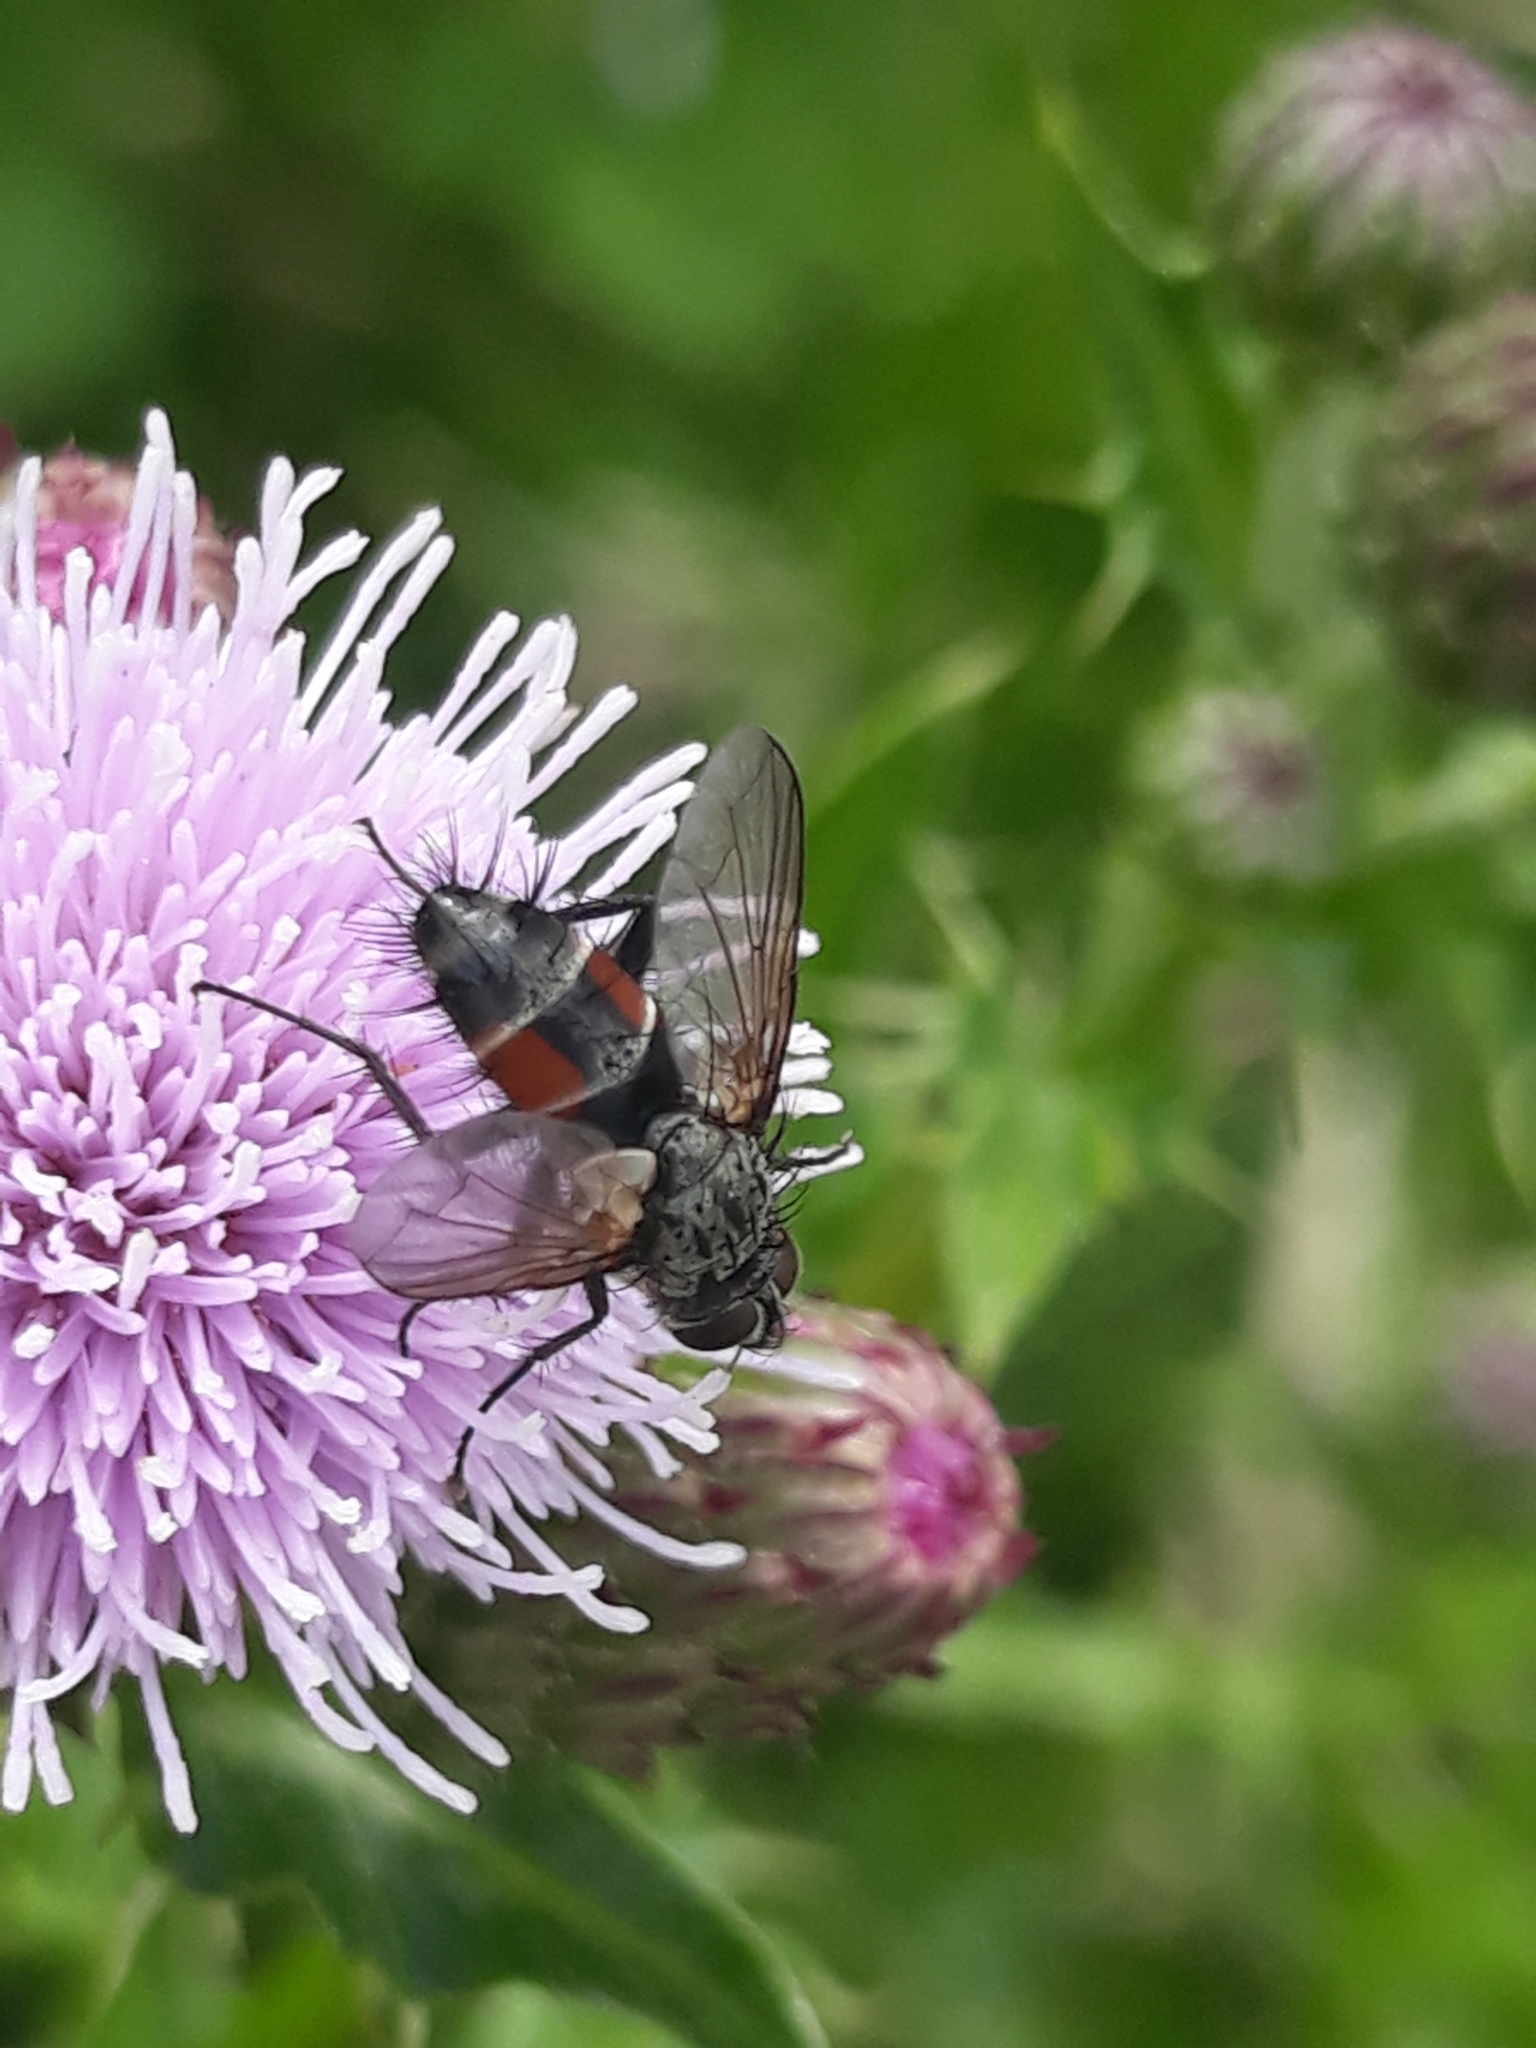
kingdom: Animalia
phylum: Arthropoda
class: Insecta
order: Diptera
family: Tachinidae
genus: Eriothrix
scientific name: Eriothrix rufomaculatus
